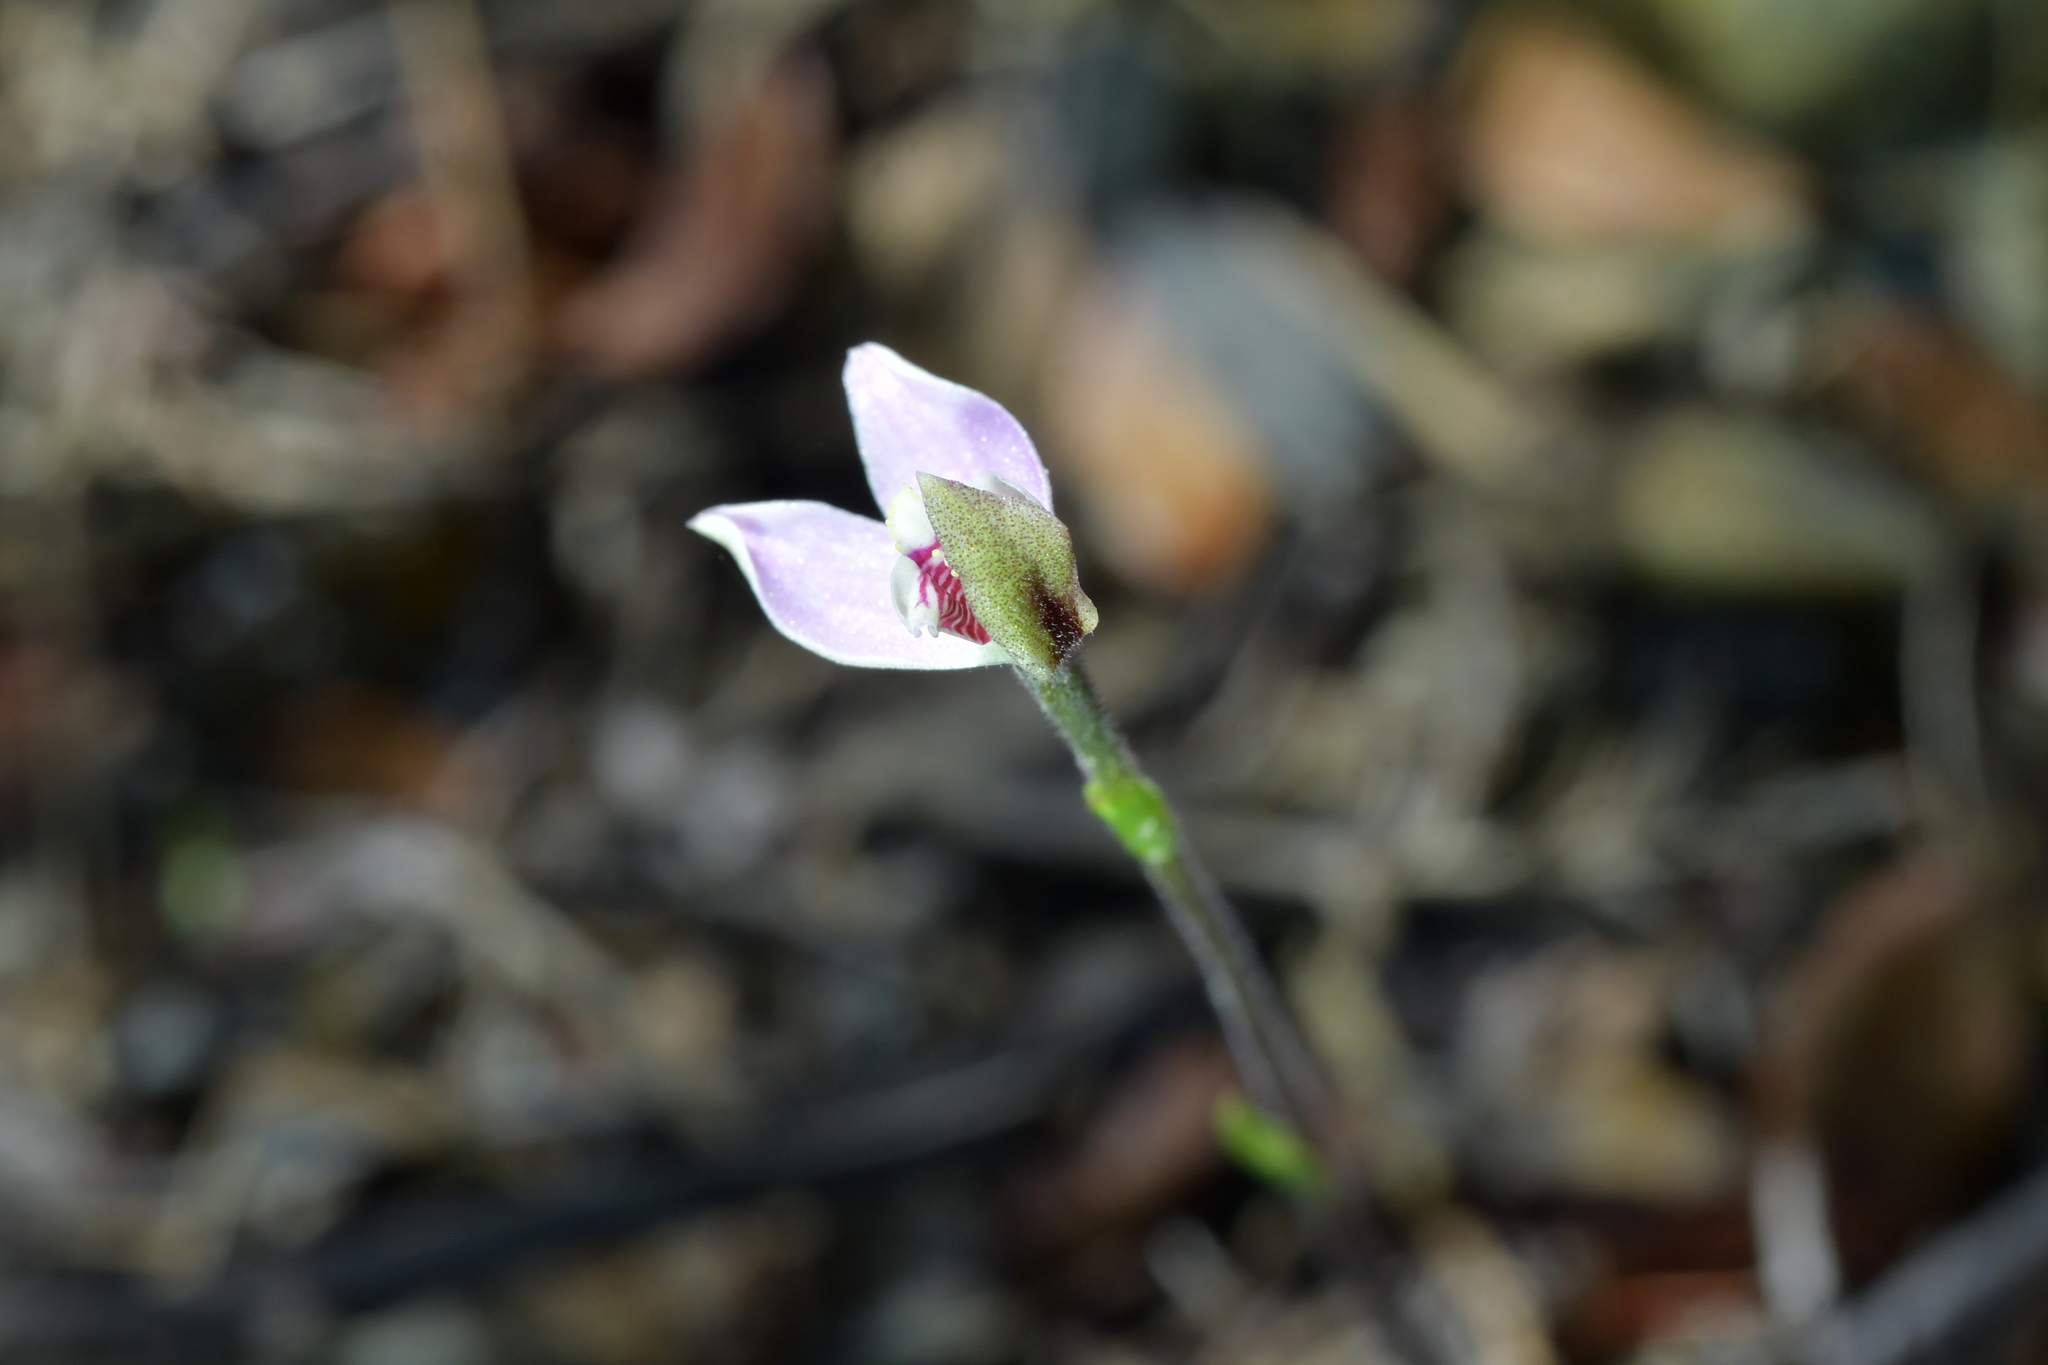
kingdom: Plantae
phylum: Tracheophyta
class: Liliopsida
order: Asparagales
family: Orchidaceae
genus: Caladenia
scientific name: Caladenia variegata
